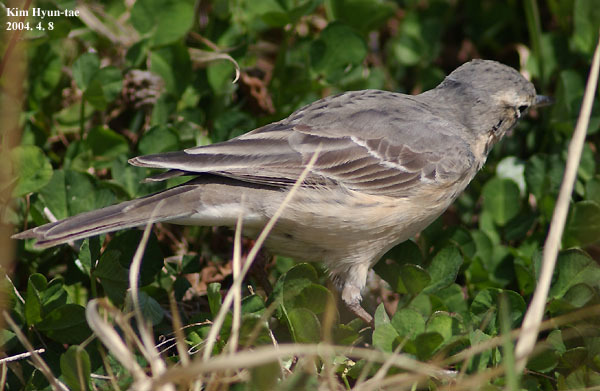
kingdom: Animalia
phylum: Chordata
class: Aves
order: Passeriformes
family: Motacillidae
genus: Anthus
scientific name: Anthus spinoletta
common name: Water pipit
